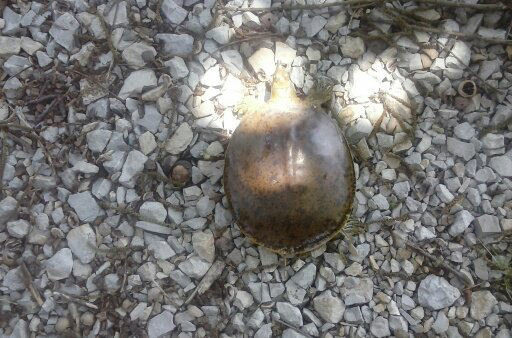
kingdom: Animalia
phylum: Chordata
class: Testudines
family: Trionychidae
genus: Apalone
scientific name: Apalone spinifera
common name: Spiny softshell turtle
